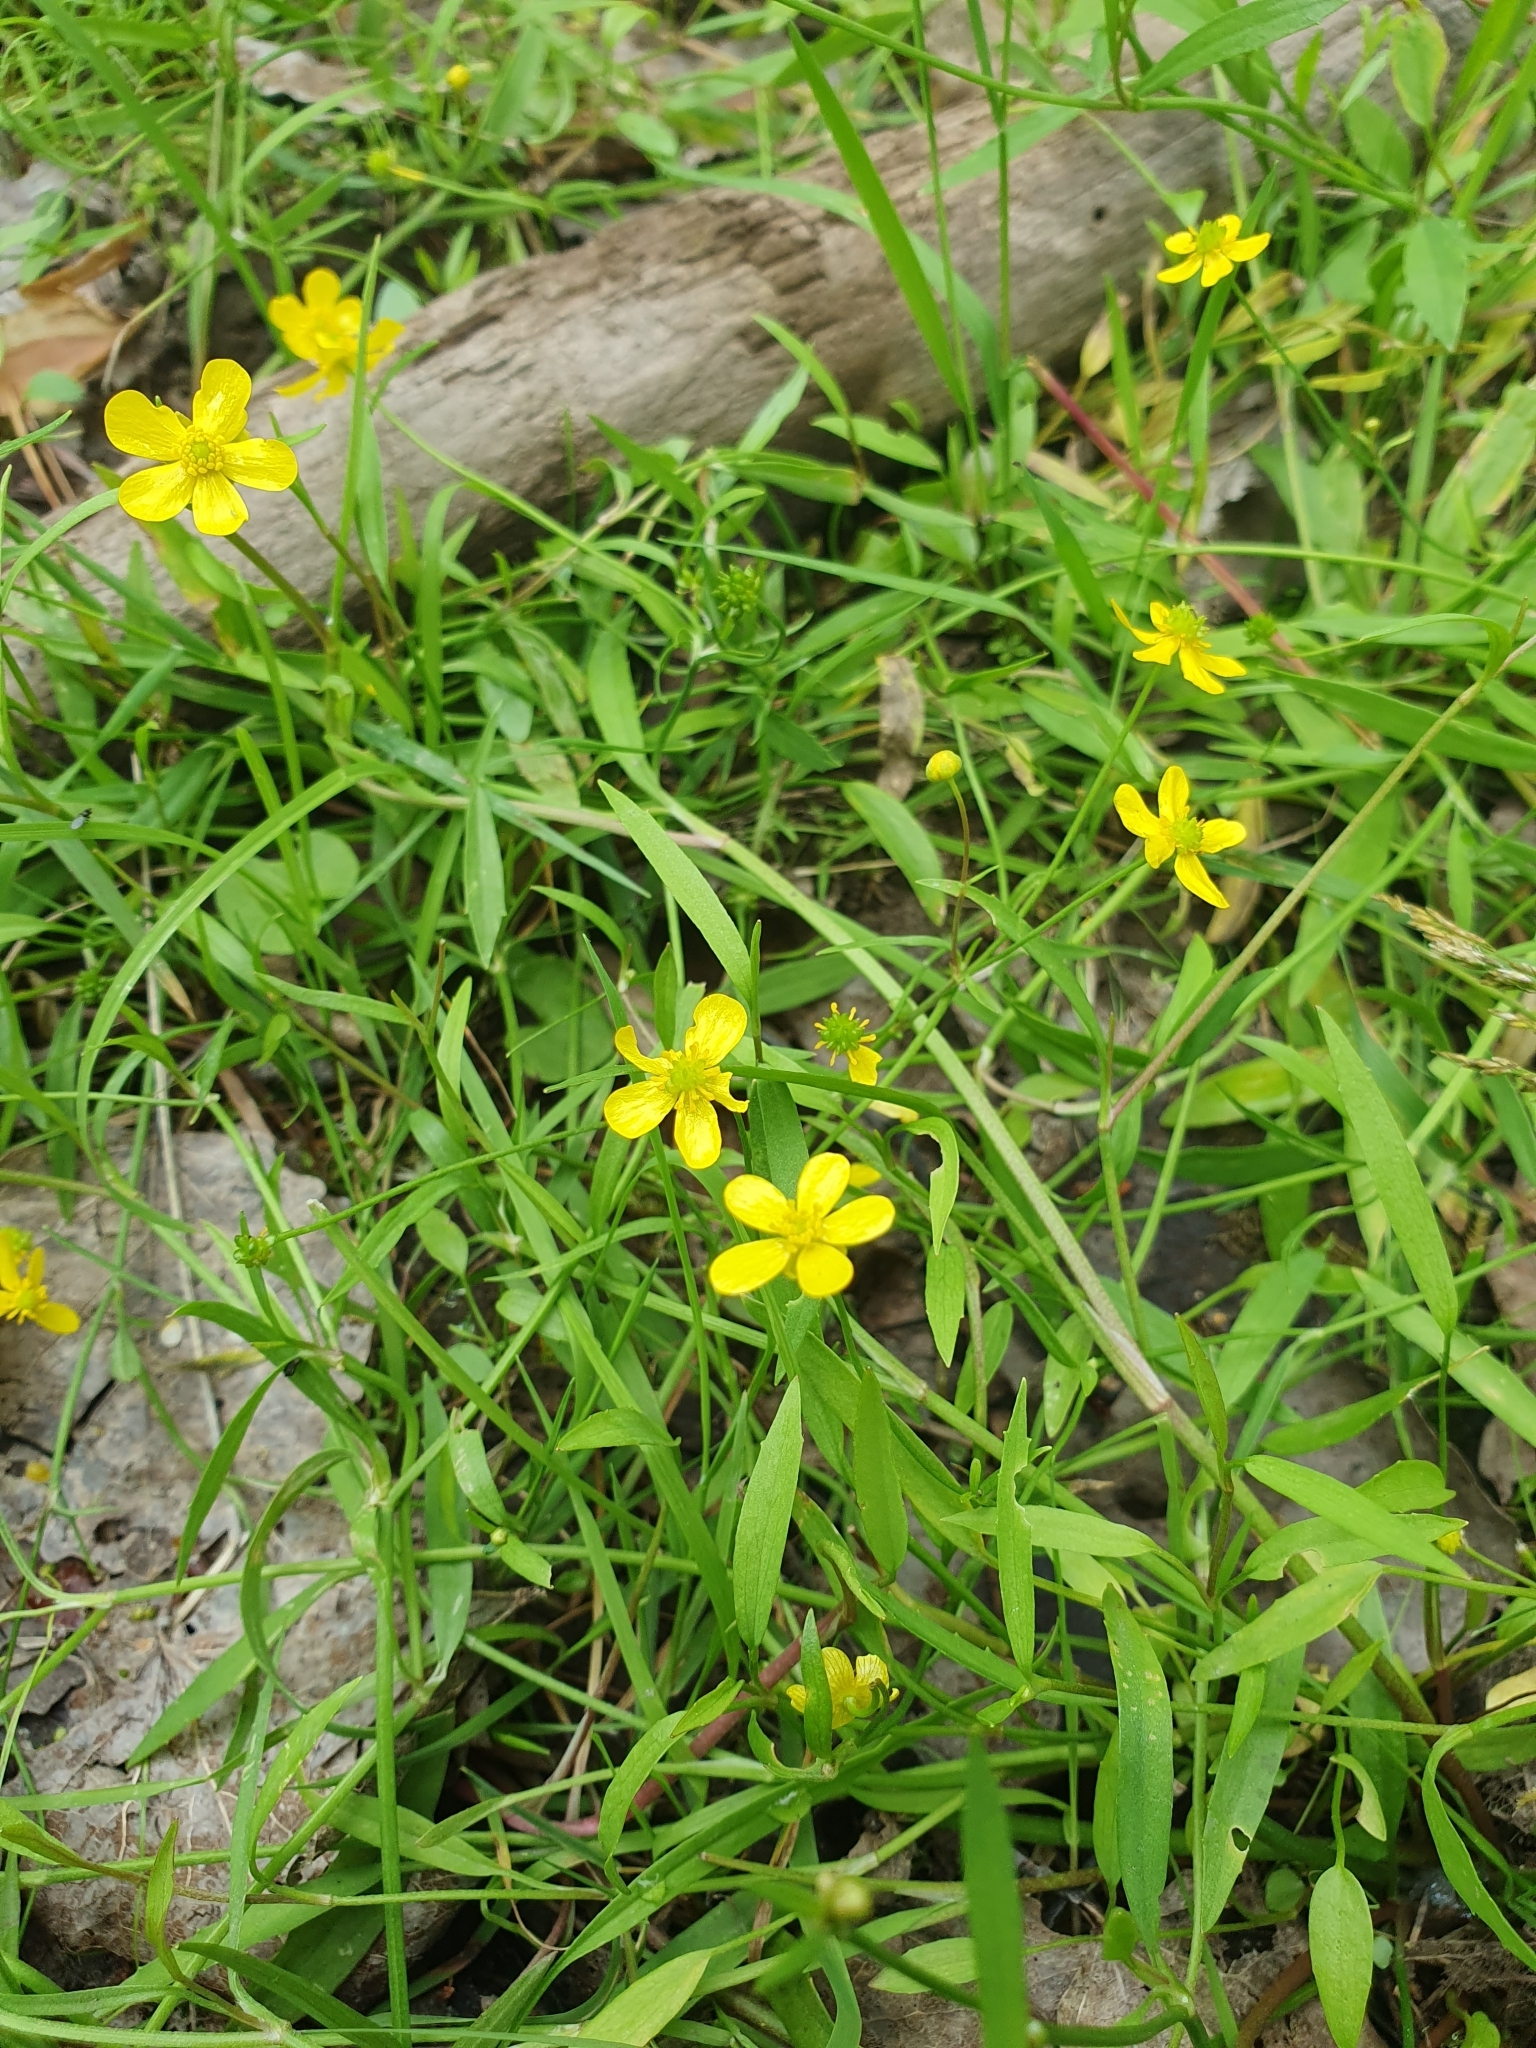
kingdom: Plantae
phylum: Tracheophyta
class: Magnoliopsida
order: Ranunculales
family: Ranunculaceae
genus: Ranunculus
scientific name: Ranunculus flammula
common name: Lesser spearwort
